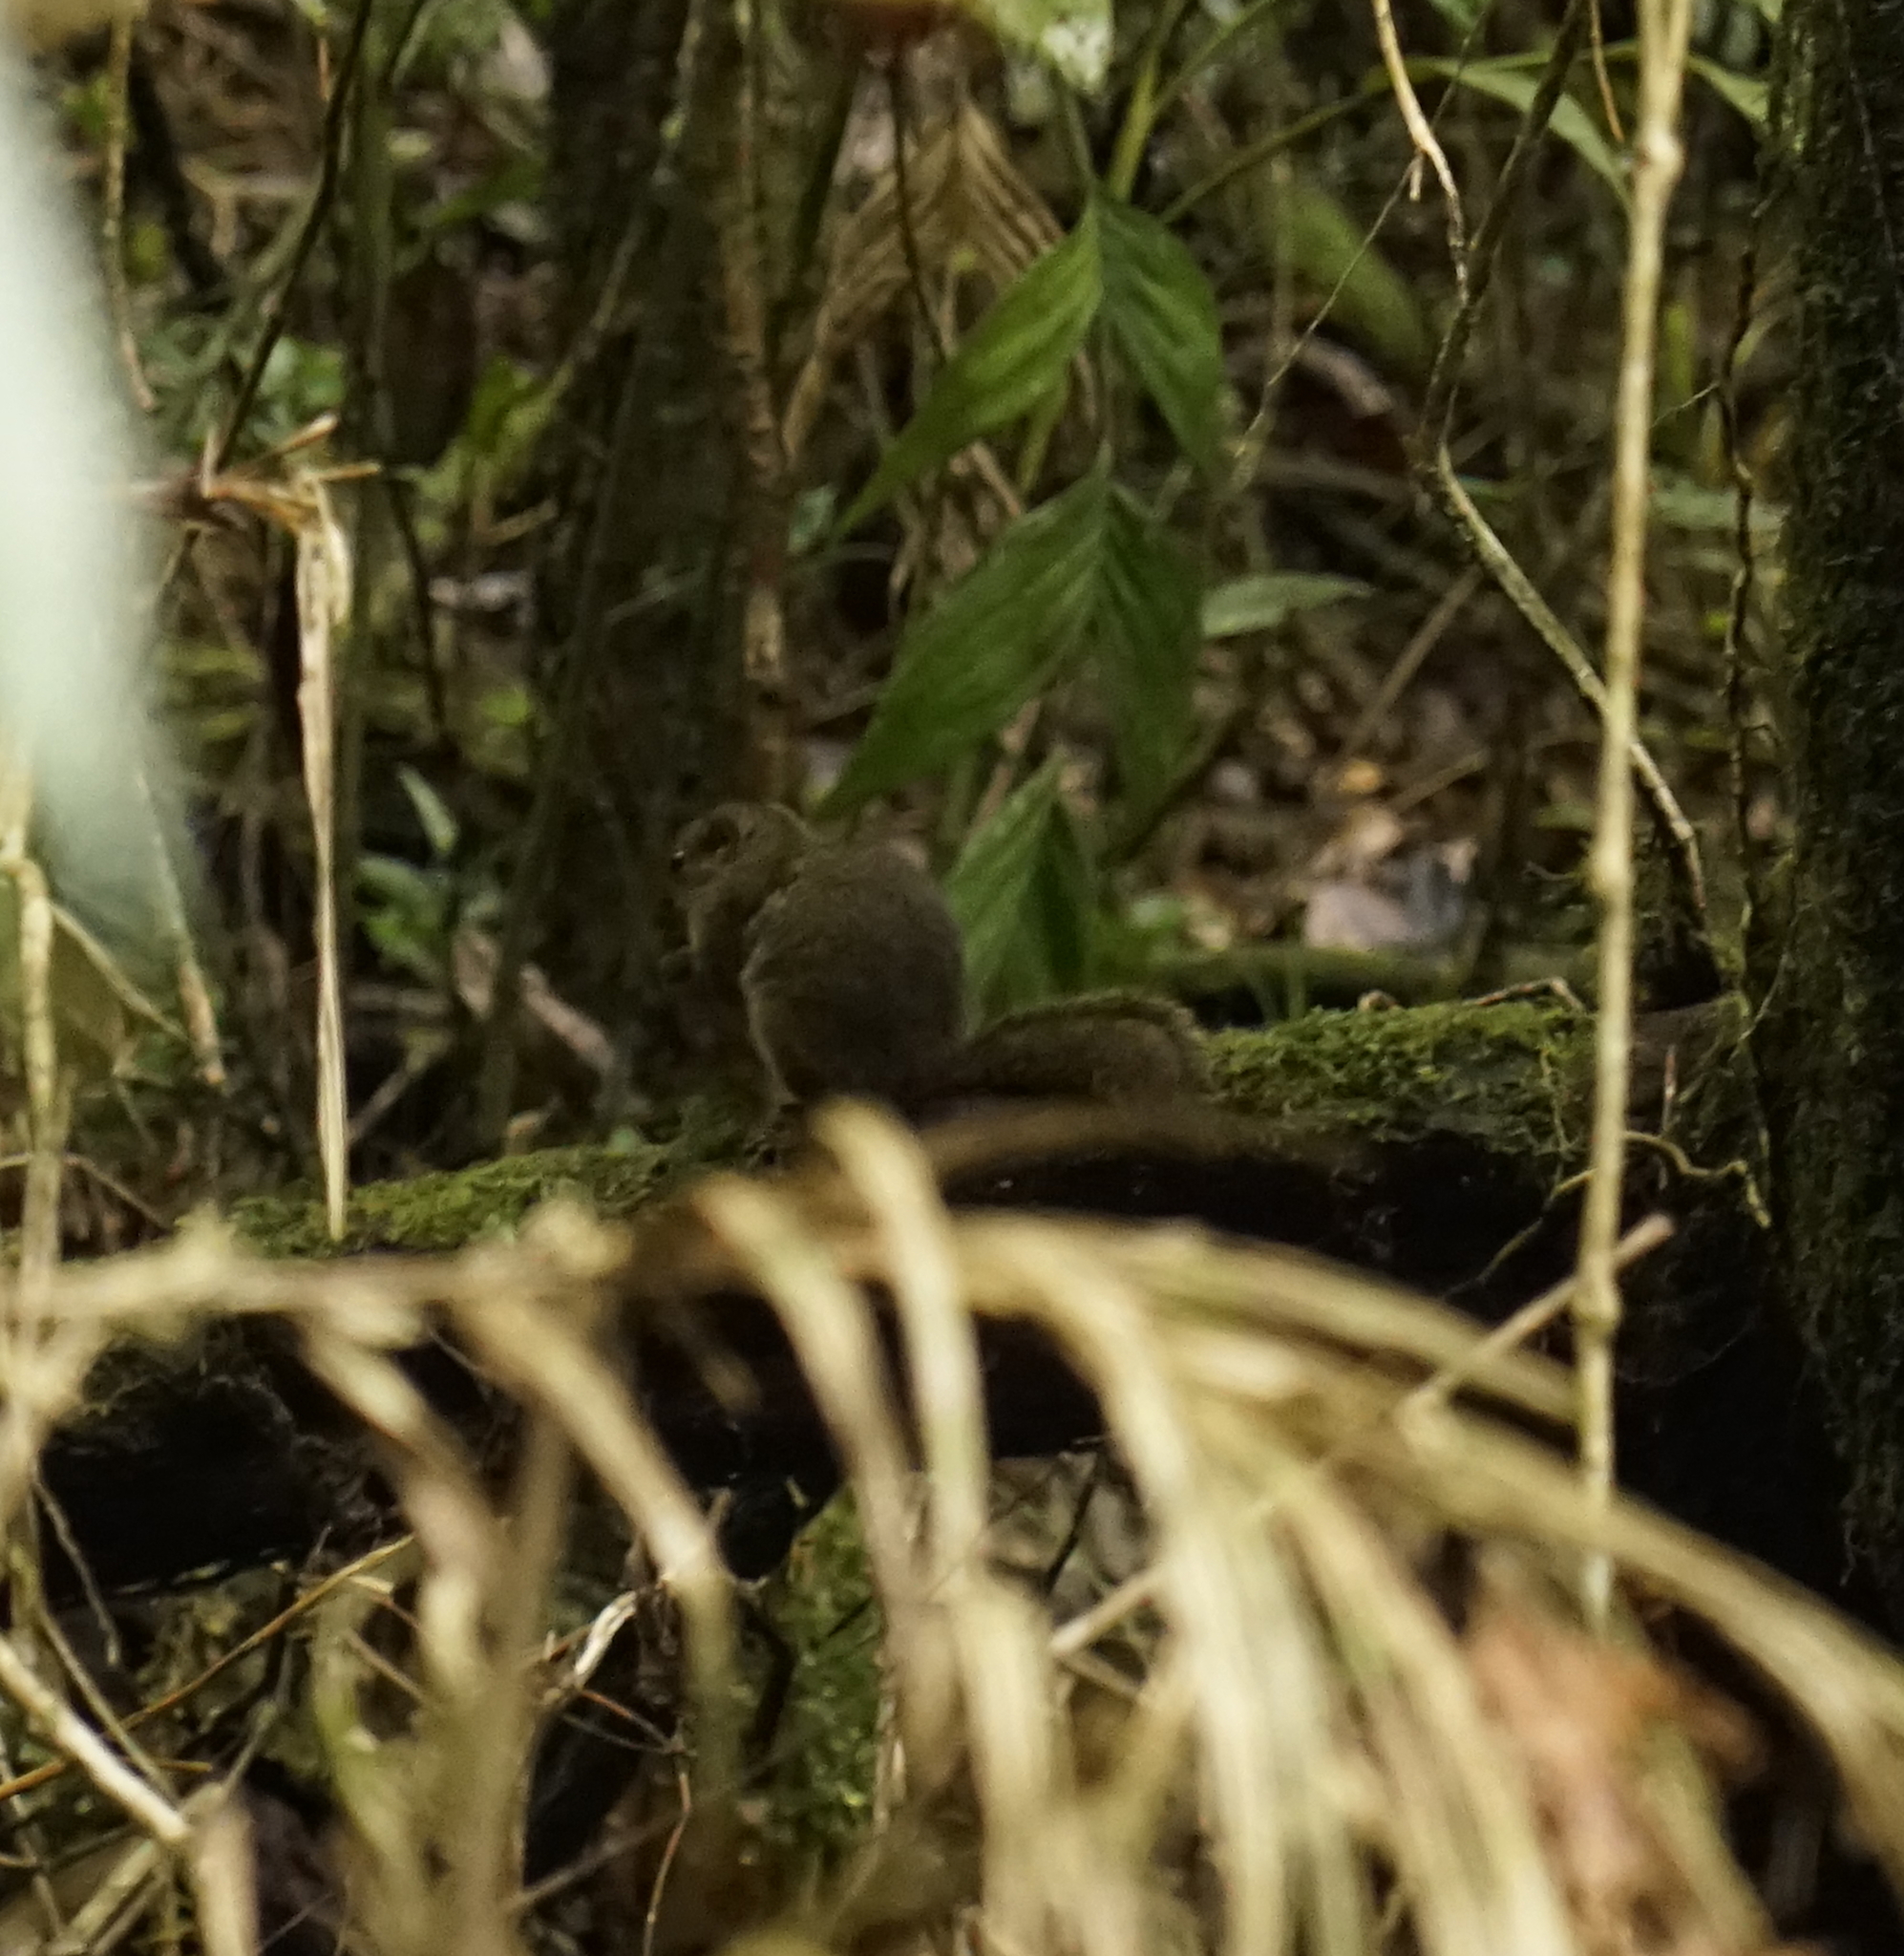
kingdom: Animalia
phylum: Chordata
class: Mammalia
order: Rodentia
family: Sciuridae
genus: Sundasciurus
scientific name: Sundasciurus everetti
